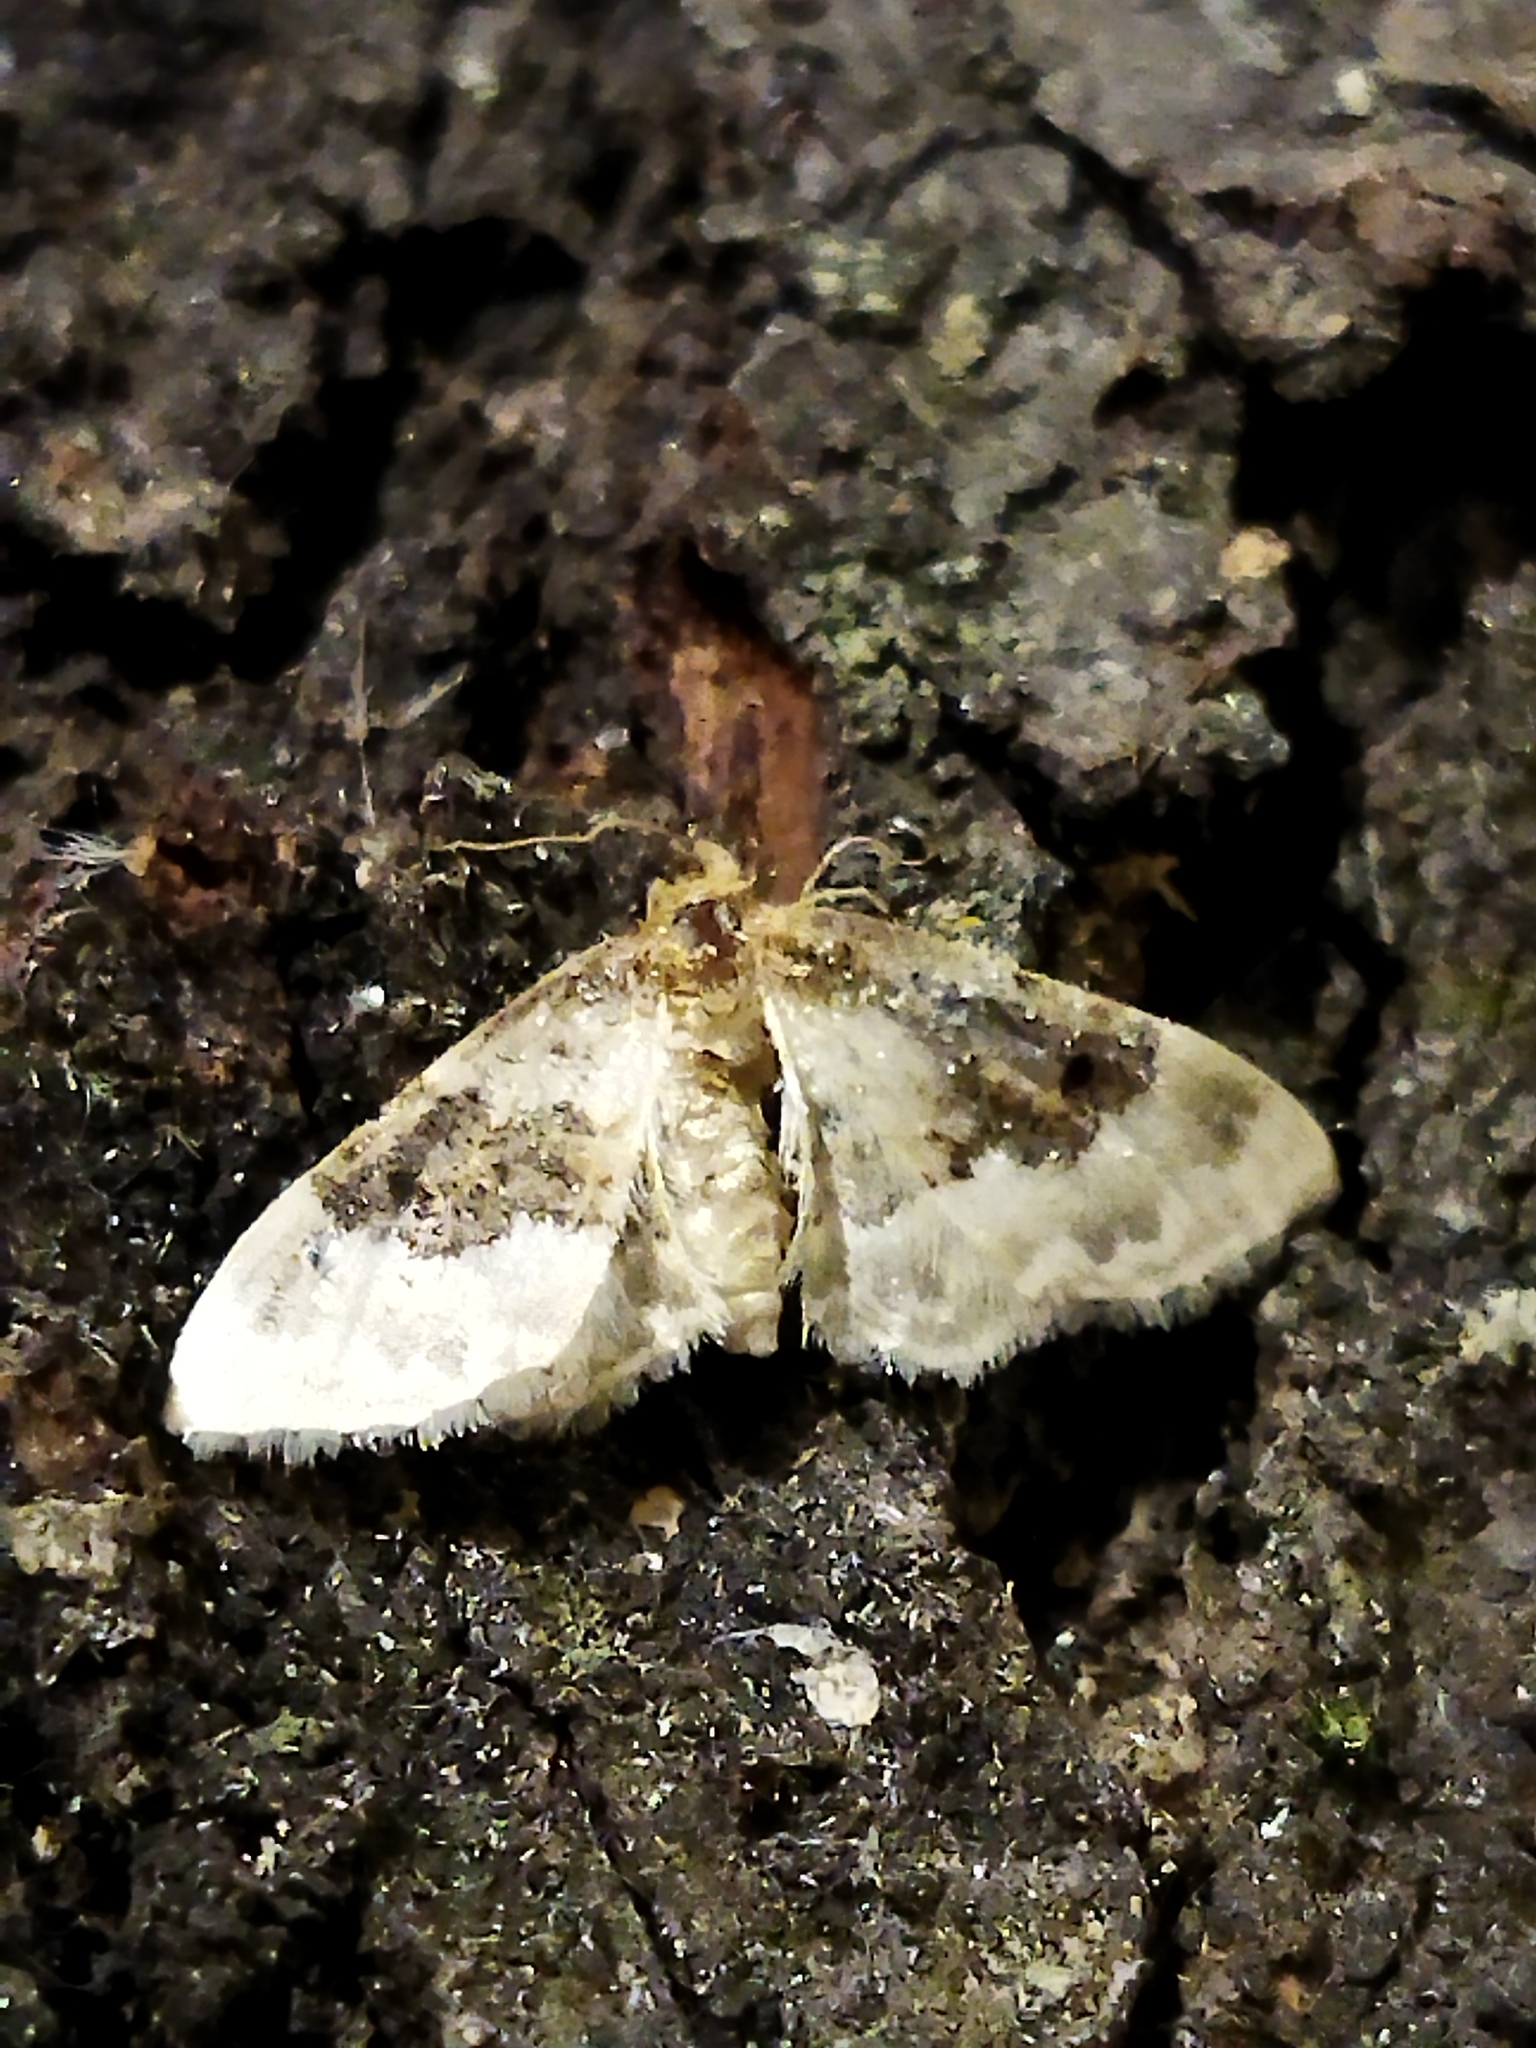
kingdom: Animalia
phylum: Arthropoda
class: Insecta
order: Lepidoptera
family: Geometridae
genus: Idaea
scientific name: Idaea rusticata
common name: Least carpet
